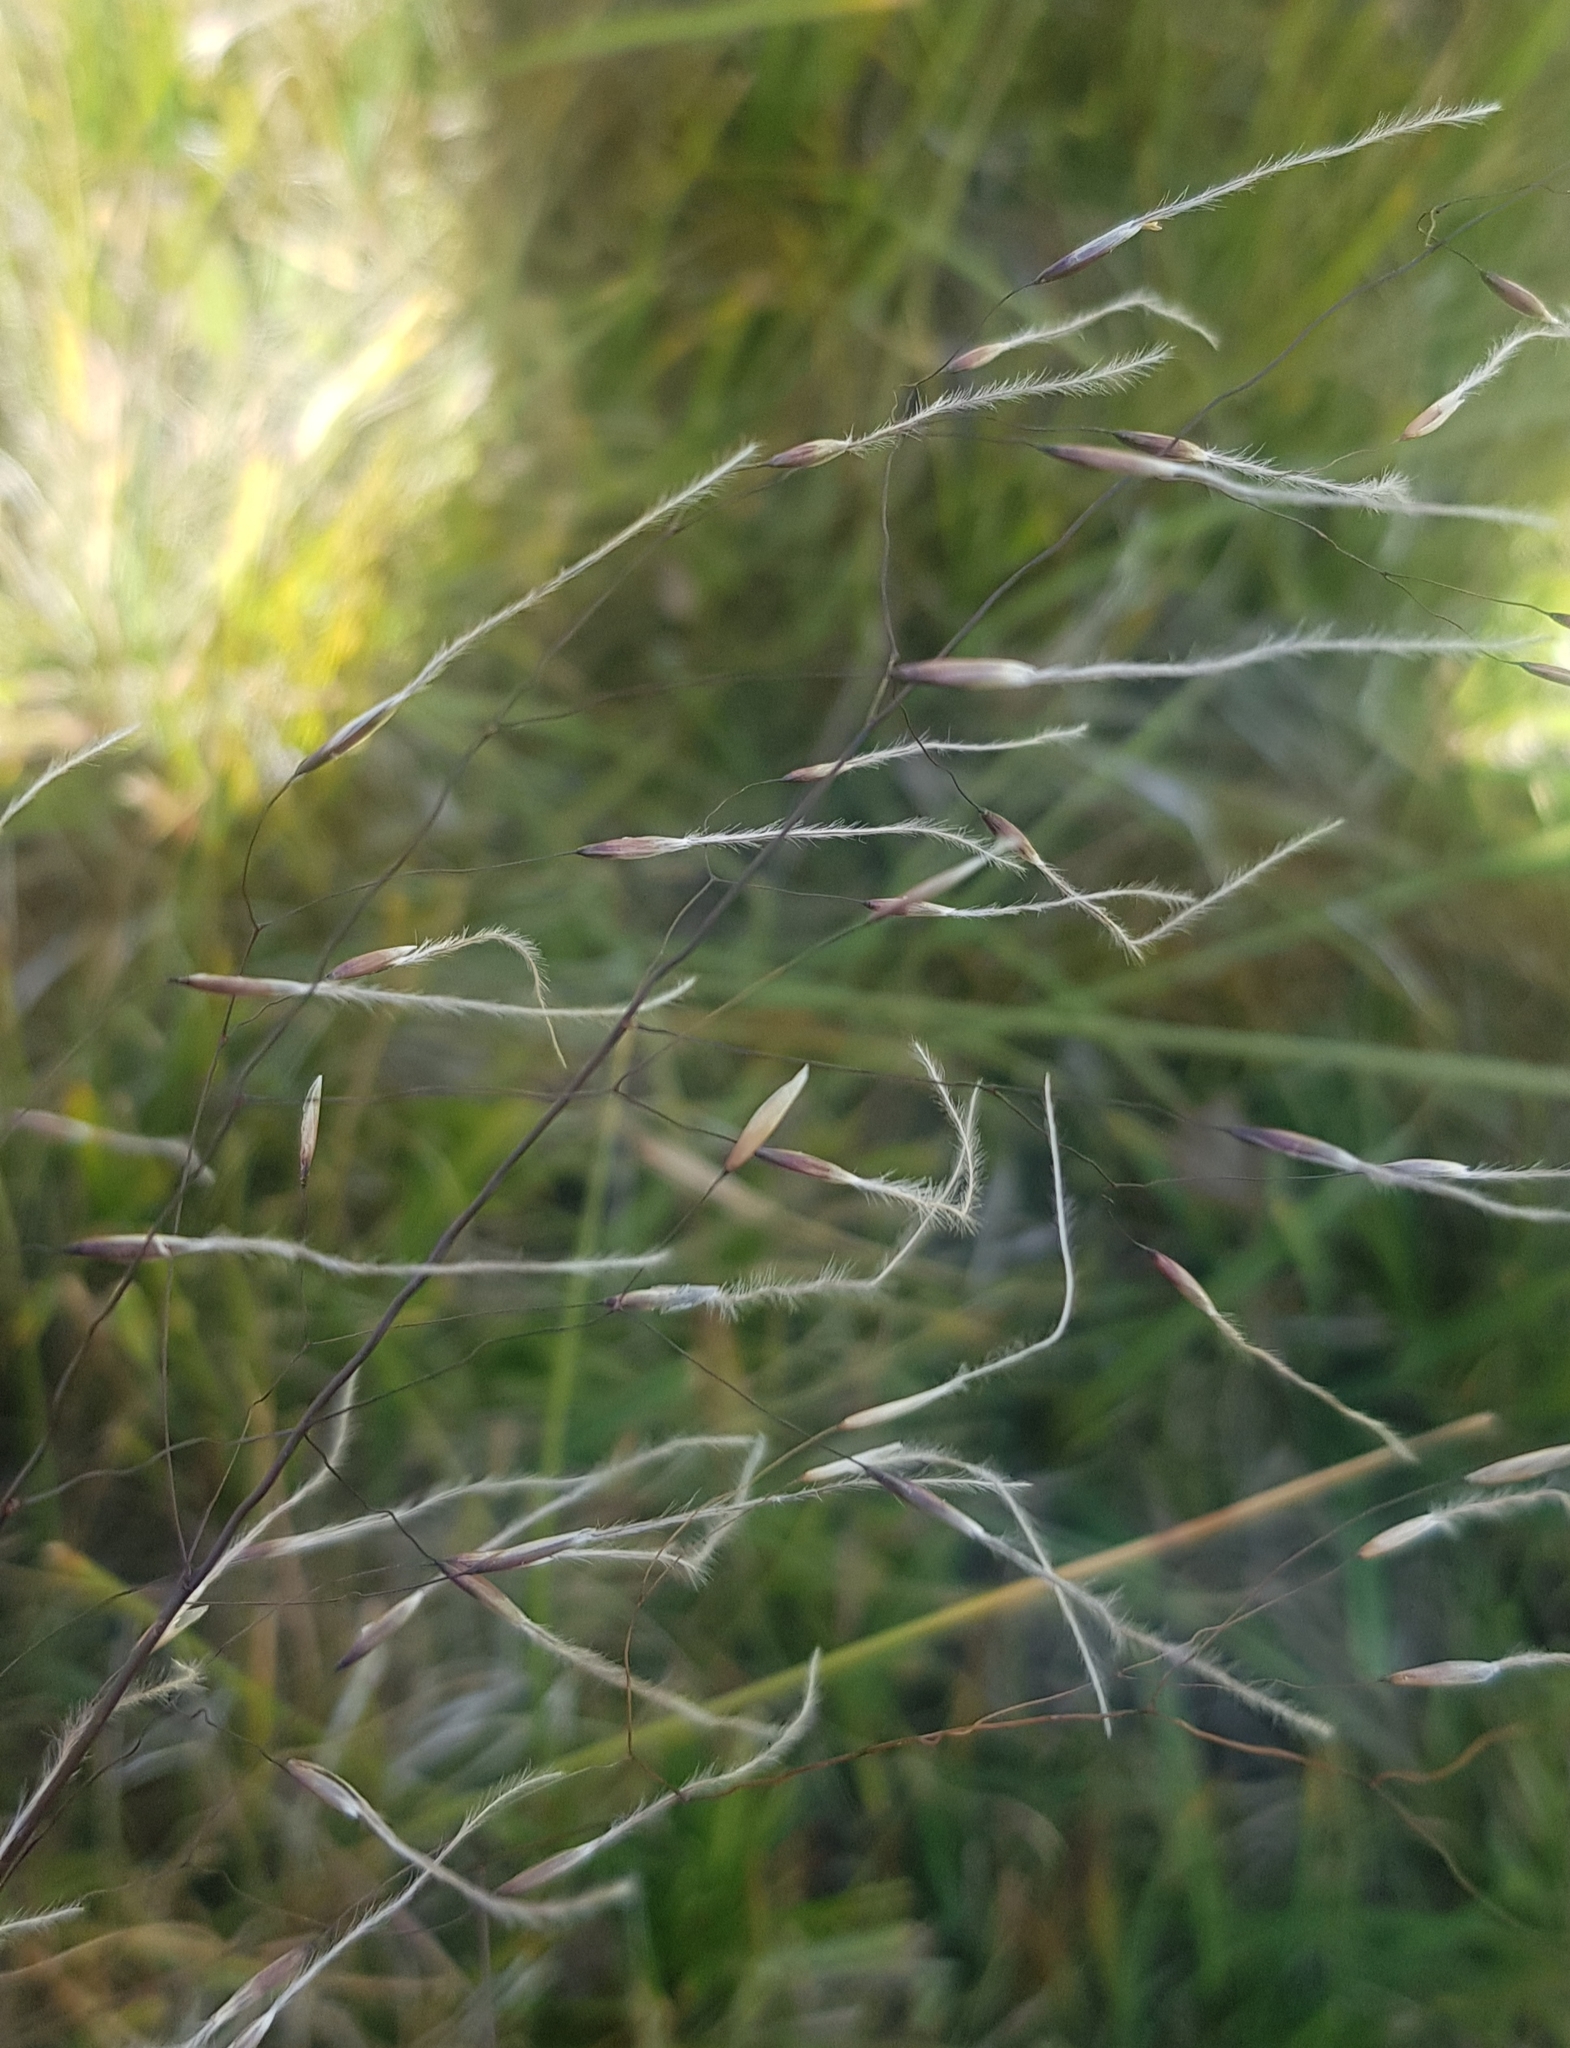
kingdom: Plantae
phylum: Tracheophyta
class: Liliopsida
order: Poales
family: Poaceae
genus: Ptilagrostis
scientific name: Ptilagrostis mongholica
